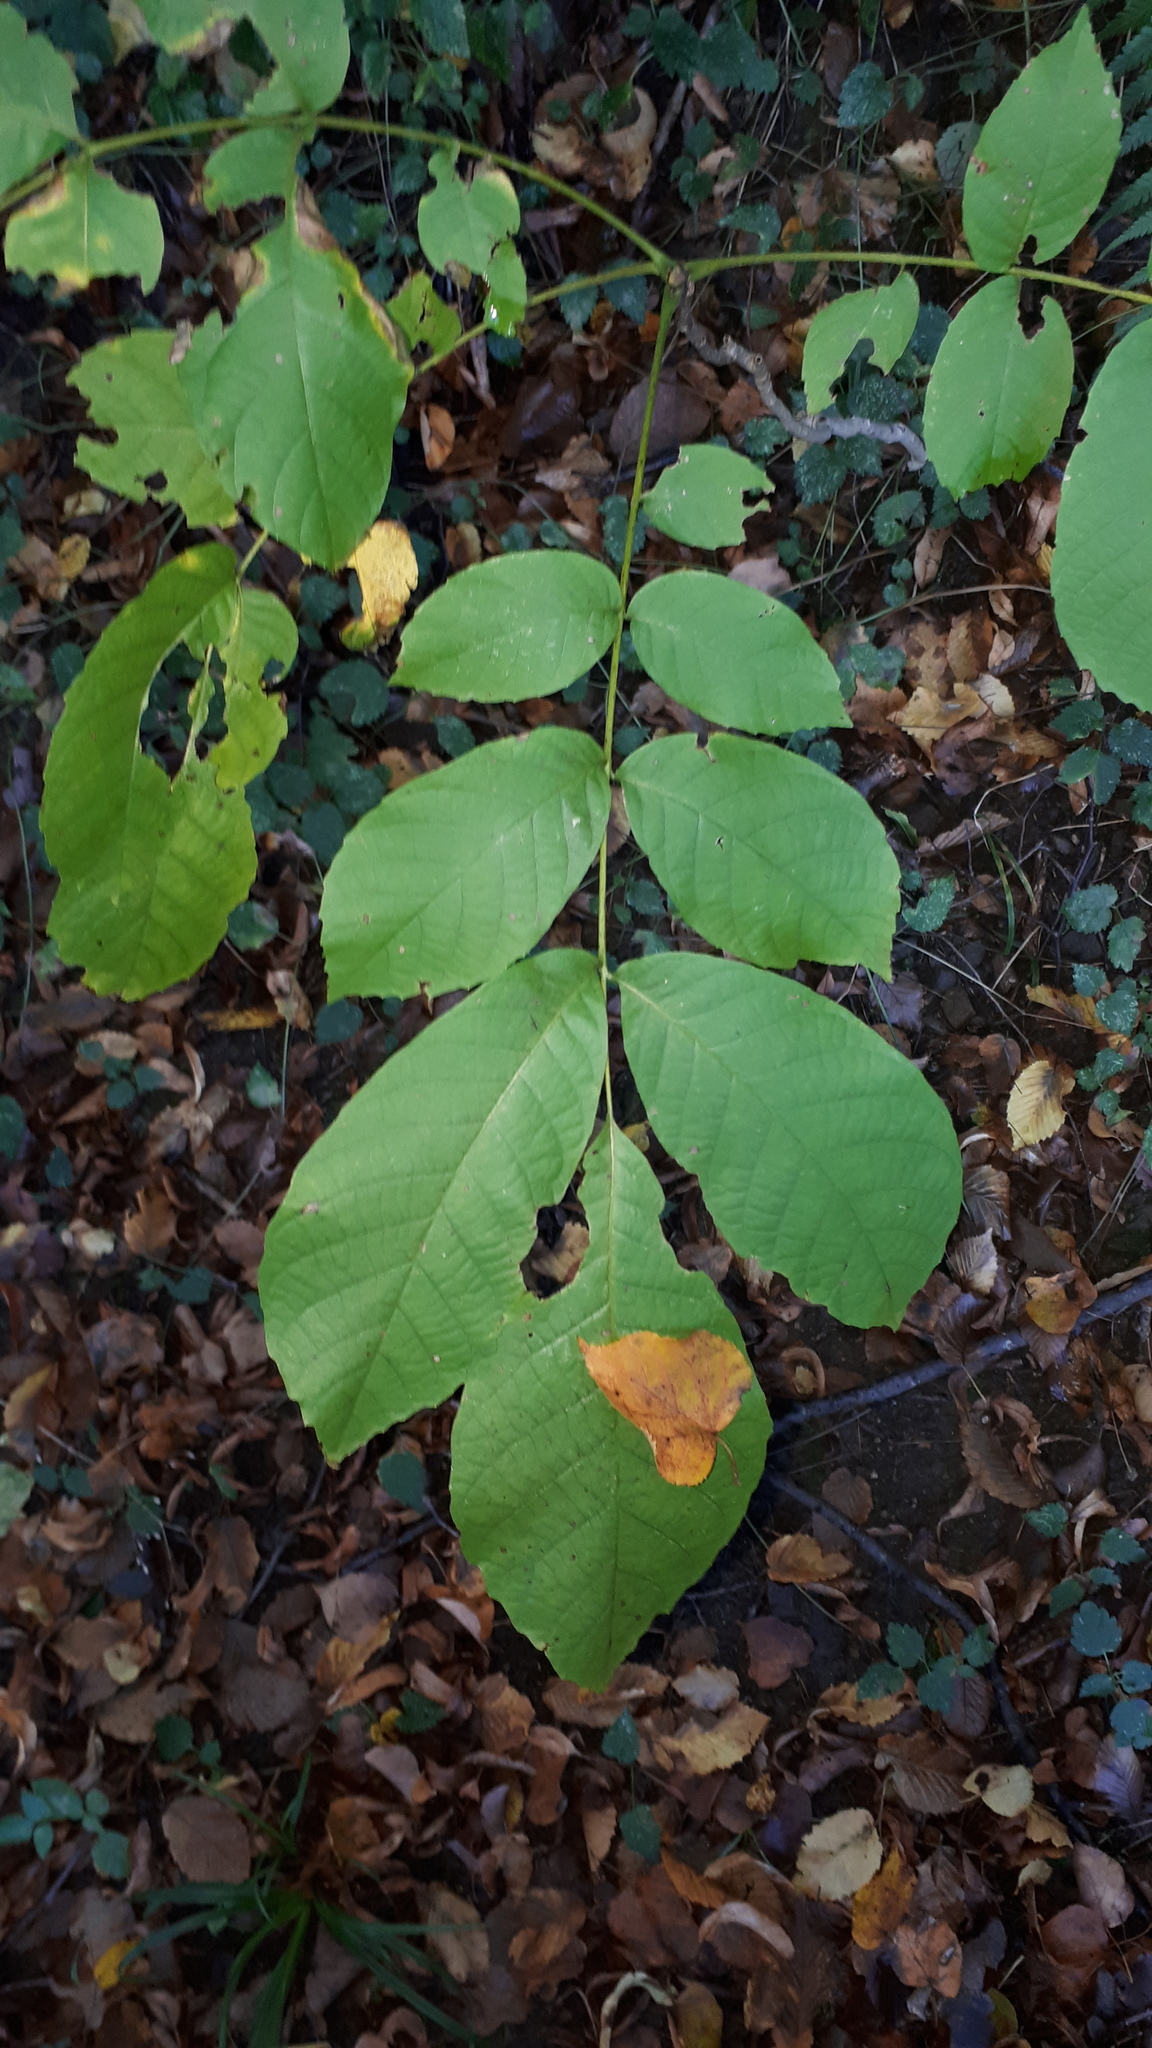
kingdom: Plantae
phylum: Tracheophyta
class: Magnoliopsida
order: Fagales
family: Juglandaceae
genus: Juglans
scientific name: Juglans regia
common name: Walnut
